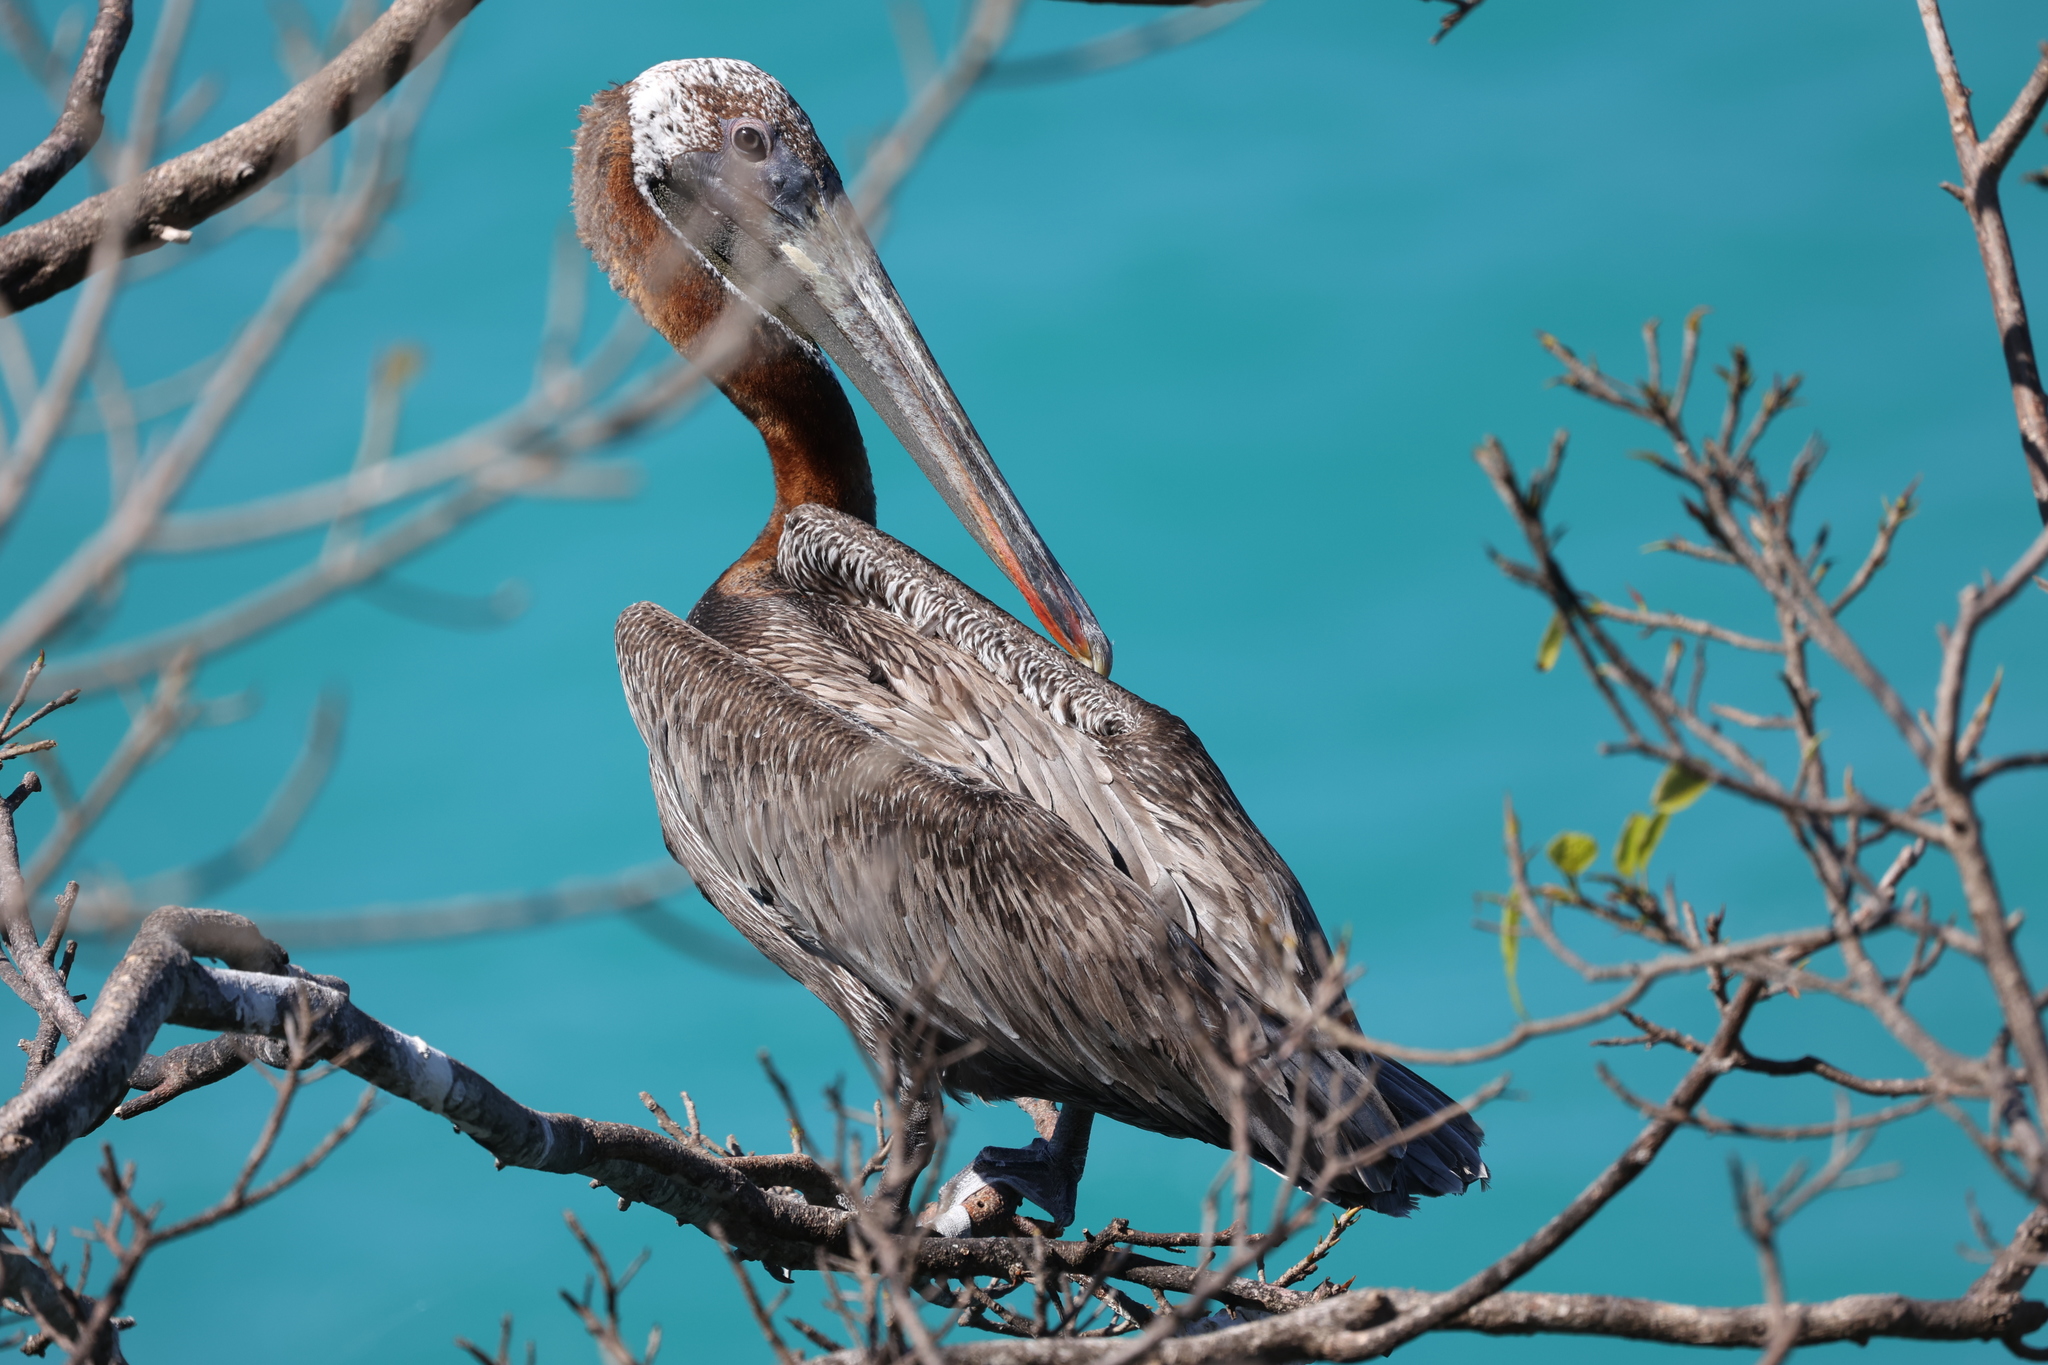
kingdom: Animalia
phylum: Chordata
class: Aves
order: Pelecaniformes
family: Pelecanidae
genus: Pelecanus
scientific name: Pelecanus occidentalis
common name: Brown pelican
